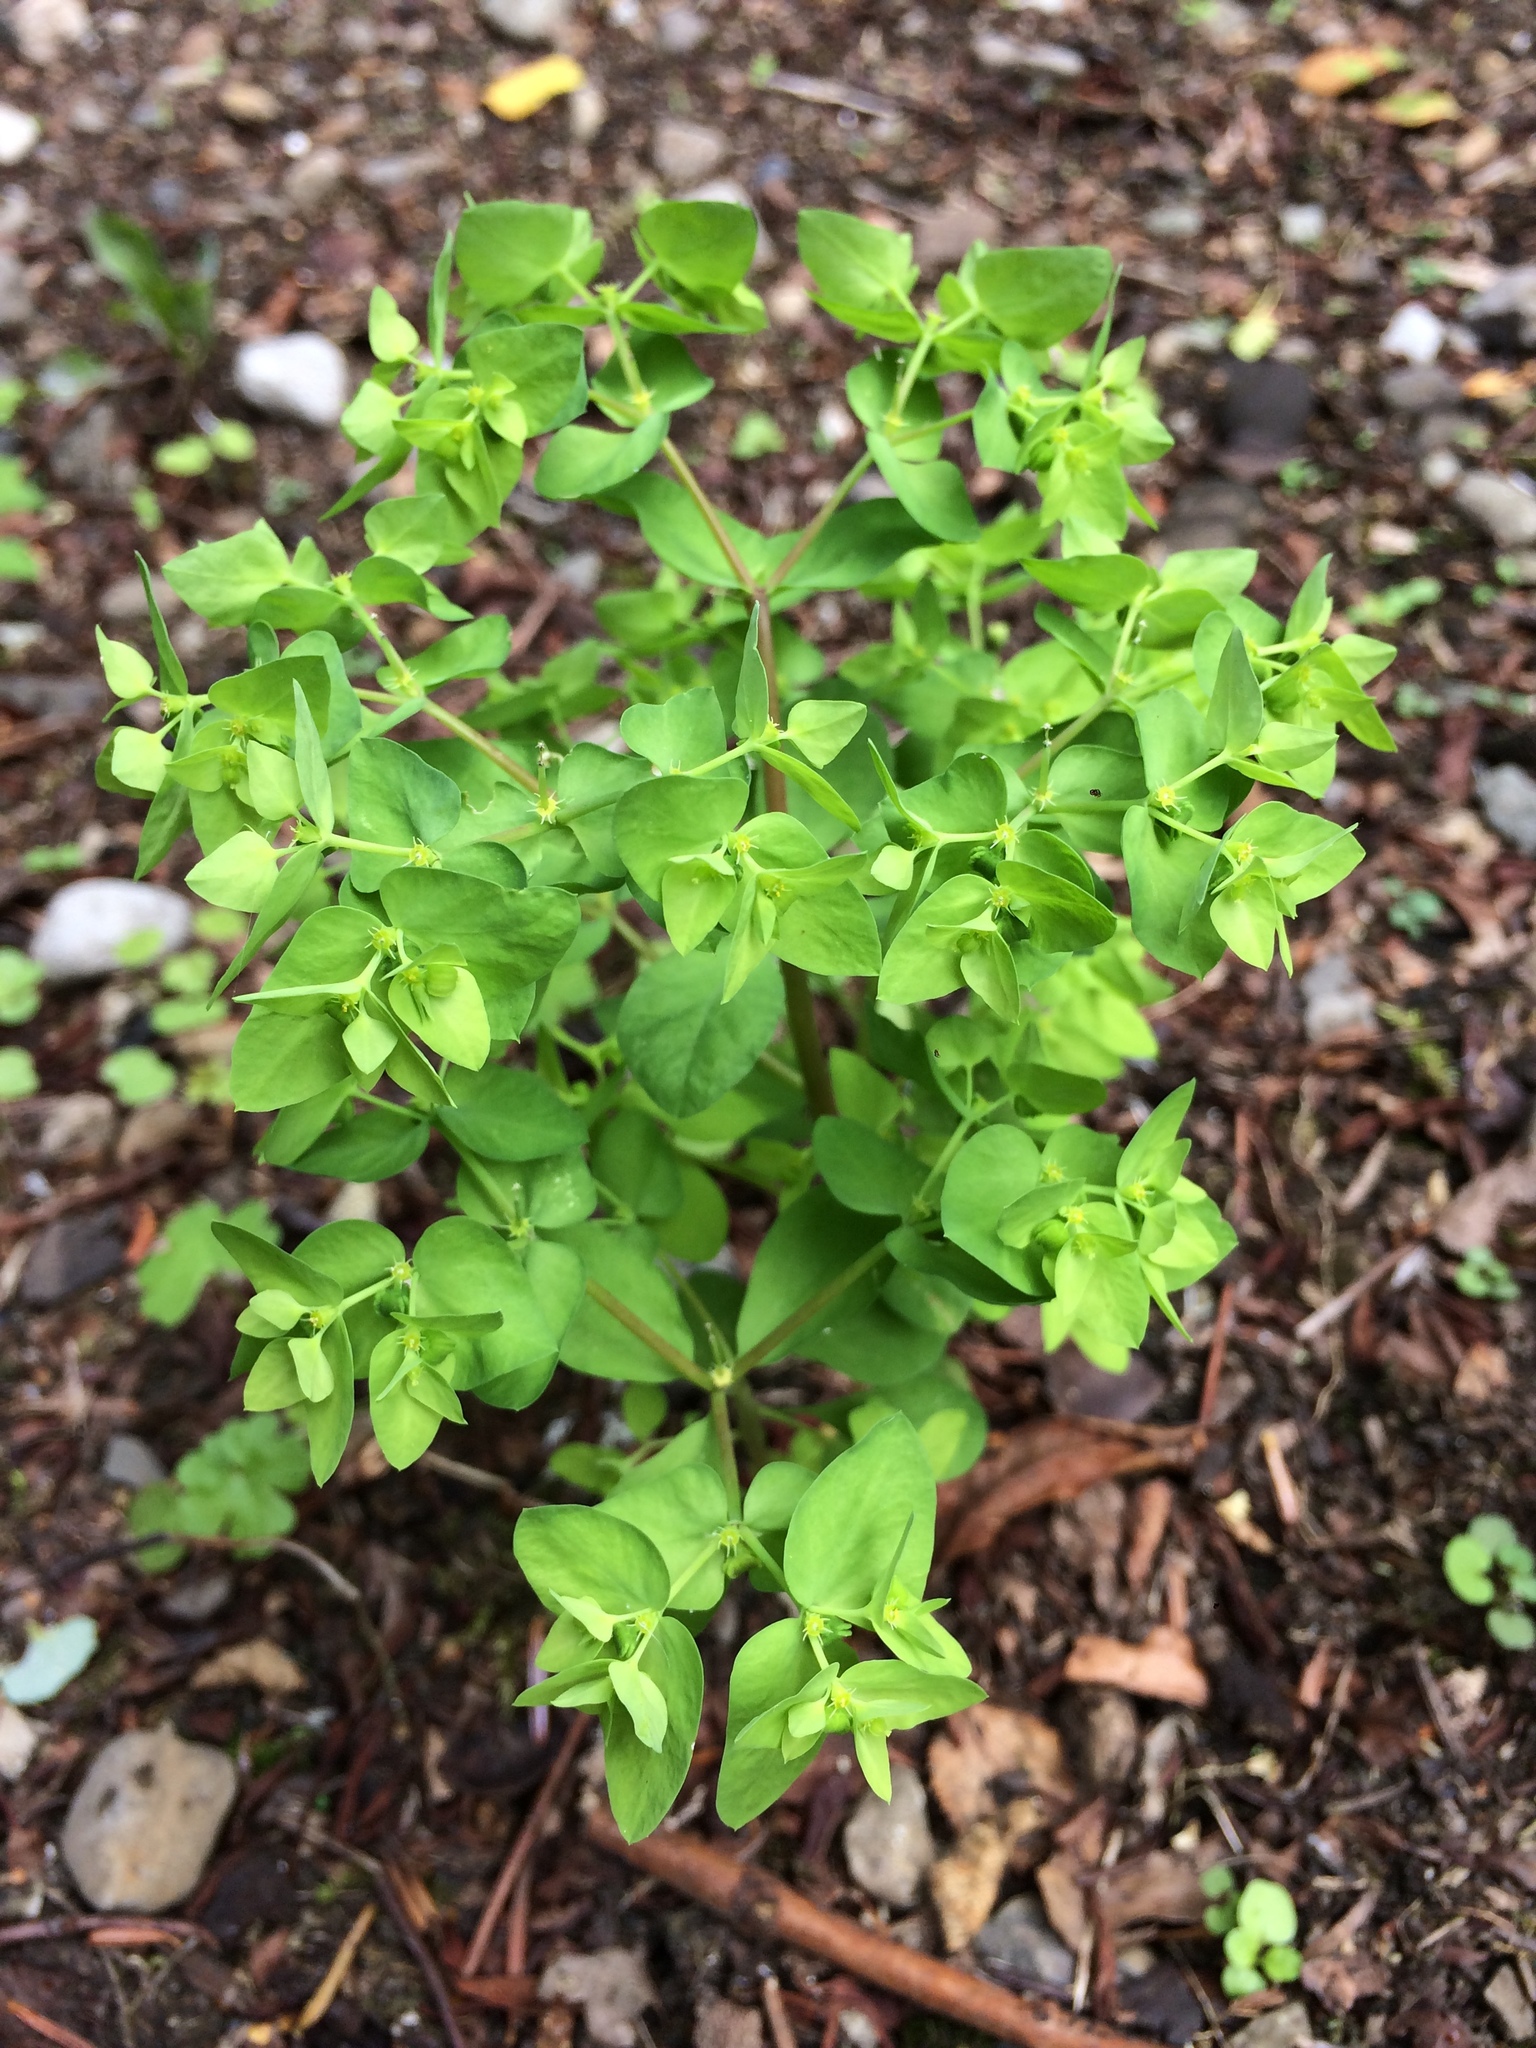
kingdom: Plantae
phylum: Tracheophyta
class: Magnoliopsida
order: Malpighiales
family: Euphorbiaceae
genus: Euphorbia
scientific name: Euphorbia peplus
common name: Petty spurge
